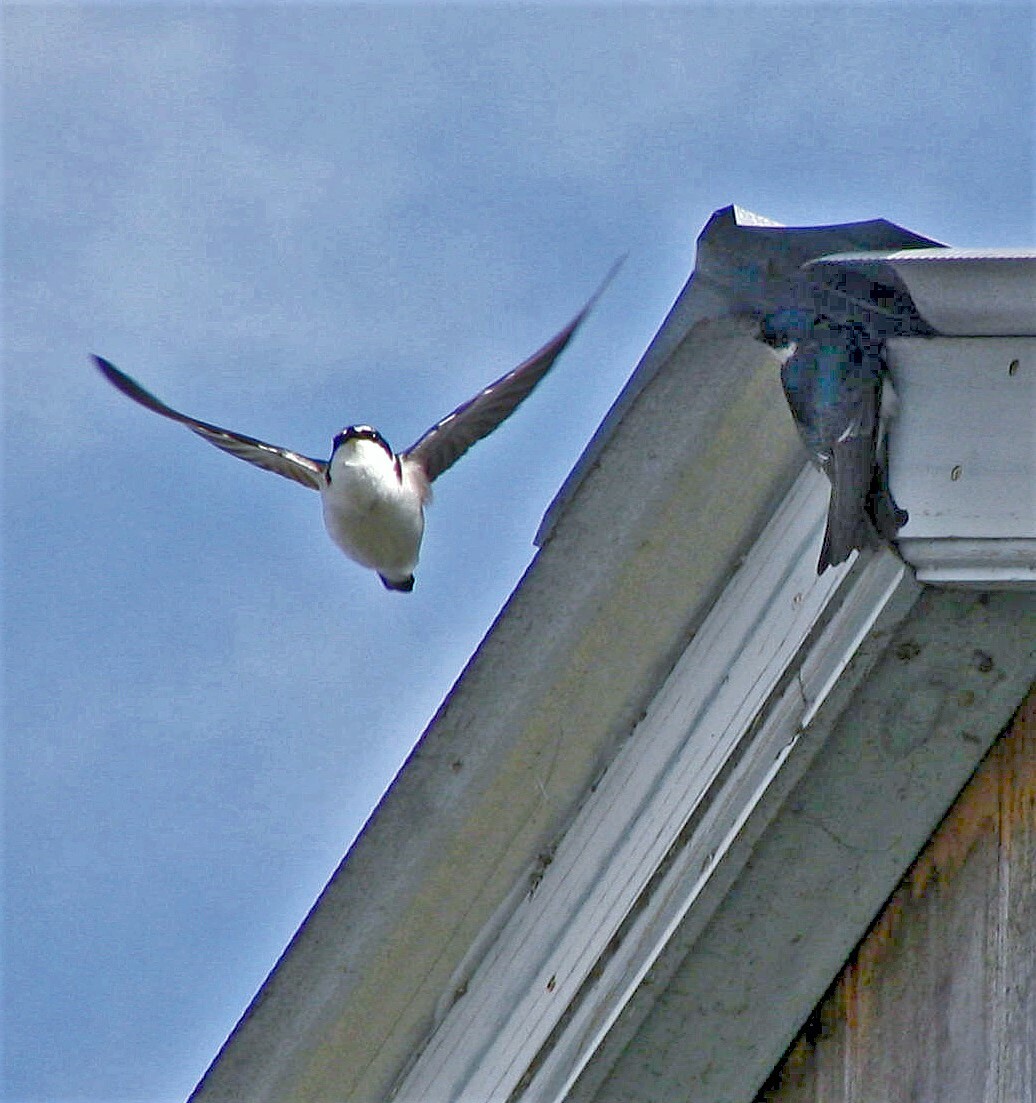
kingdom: Animalia
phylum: Chordata
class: Aves
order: Passeriformes
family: Hirundinidae
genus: Tachycineta
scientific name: Tachycineta leucorrhoa
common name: White-rumped swallow
